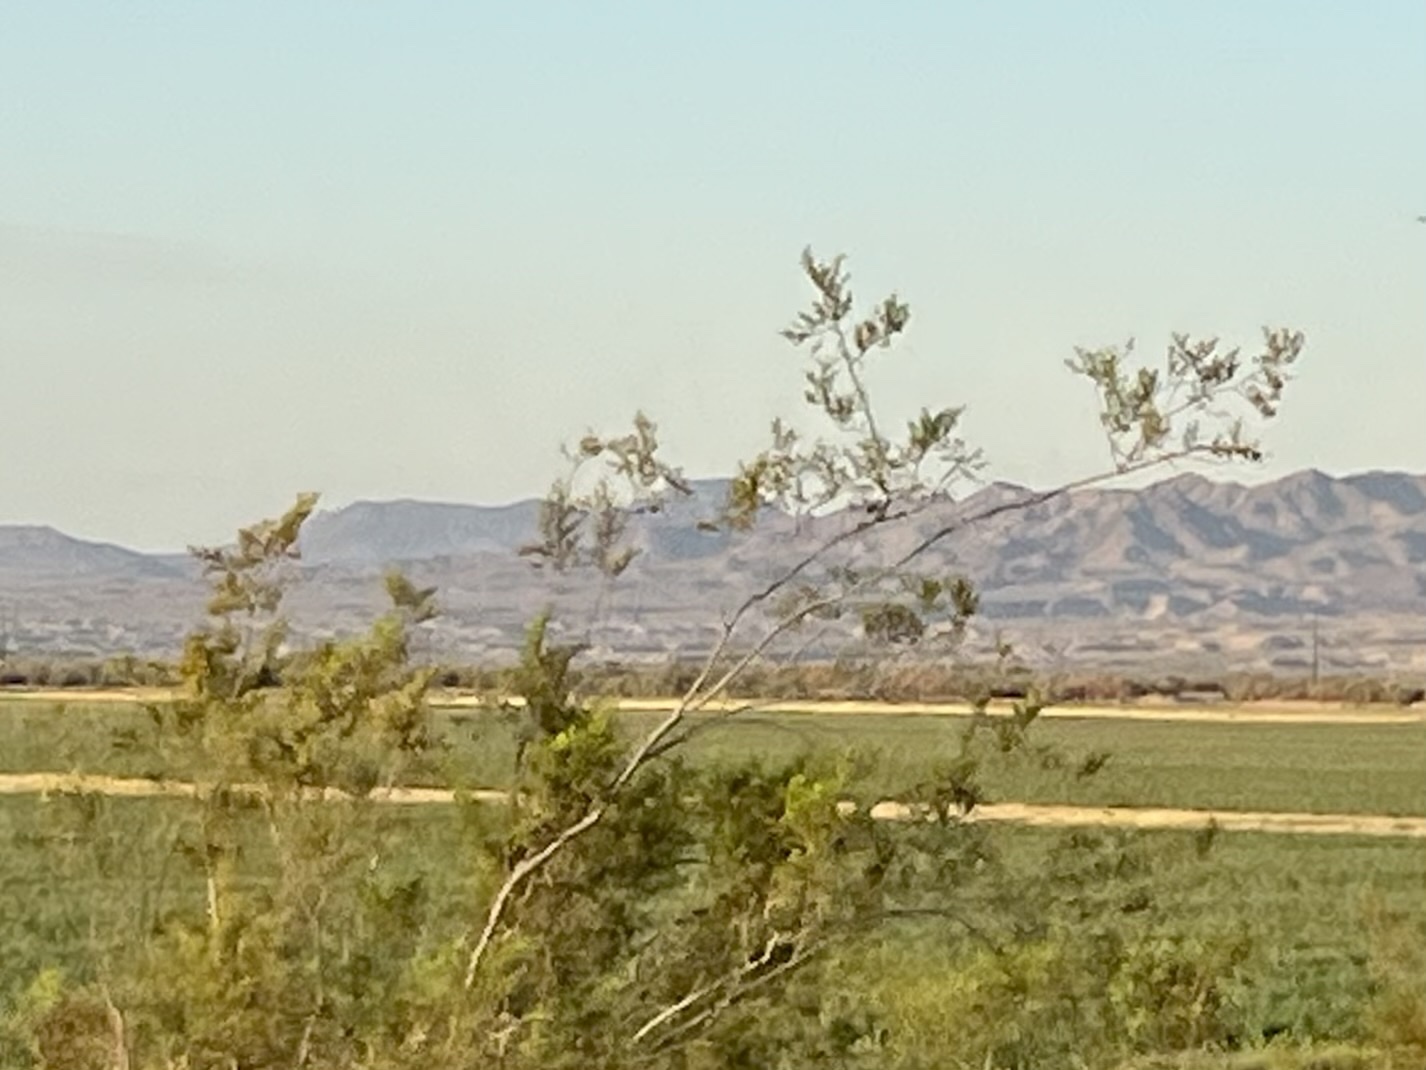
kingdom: Plantae
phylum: Tracheophyta
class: Magnoliopsida
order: Zygophyllales
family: Zygophyllaceae
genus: Larrea
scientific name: Larrea tridentata
